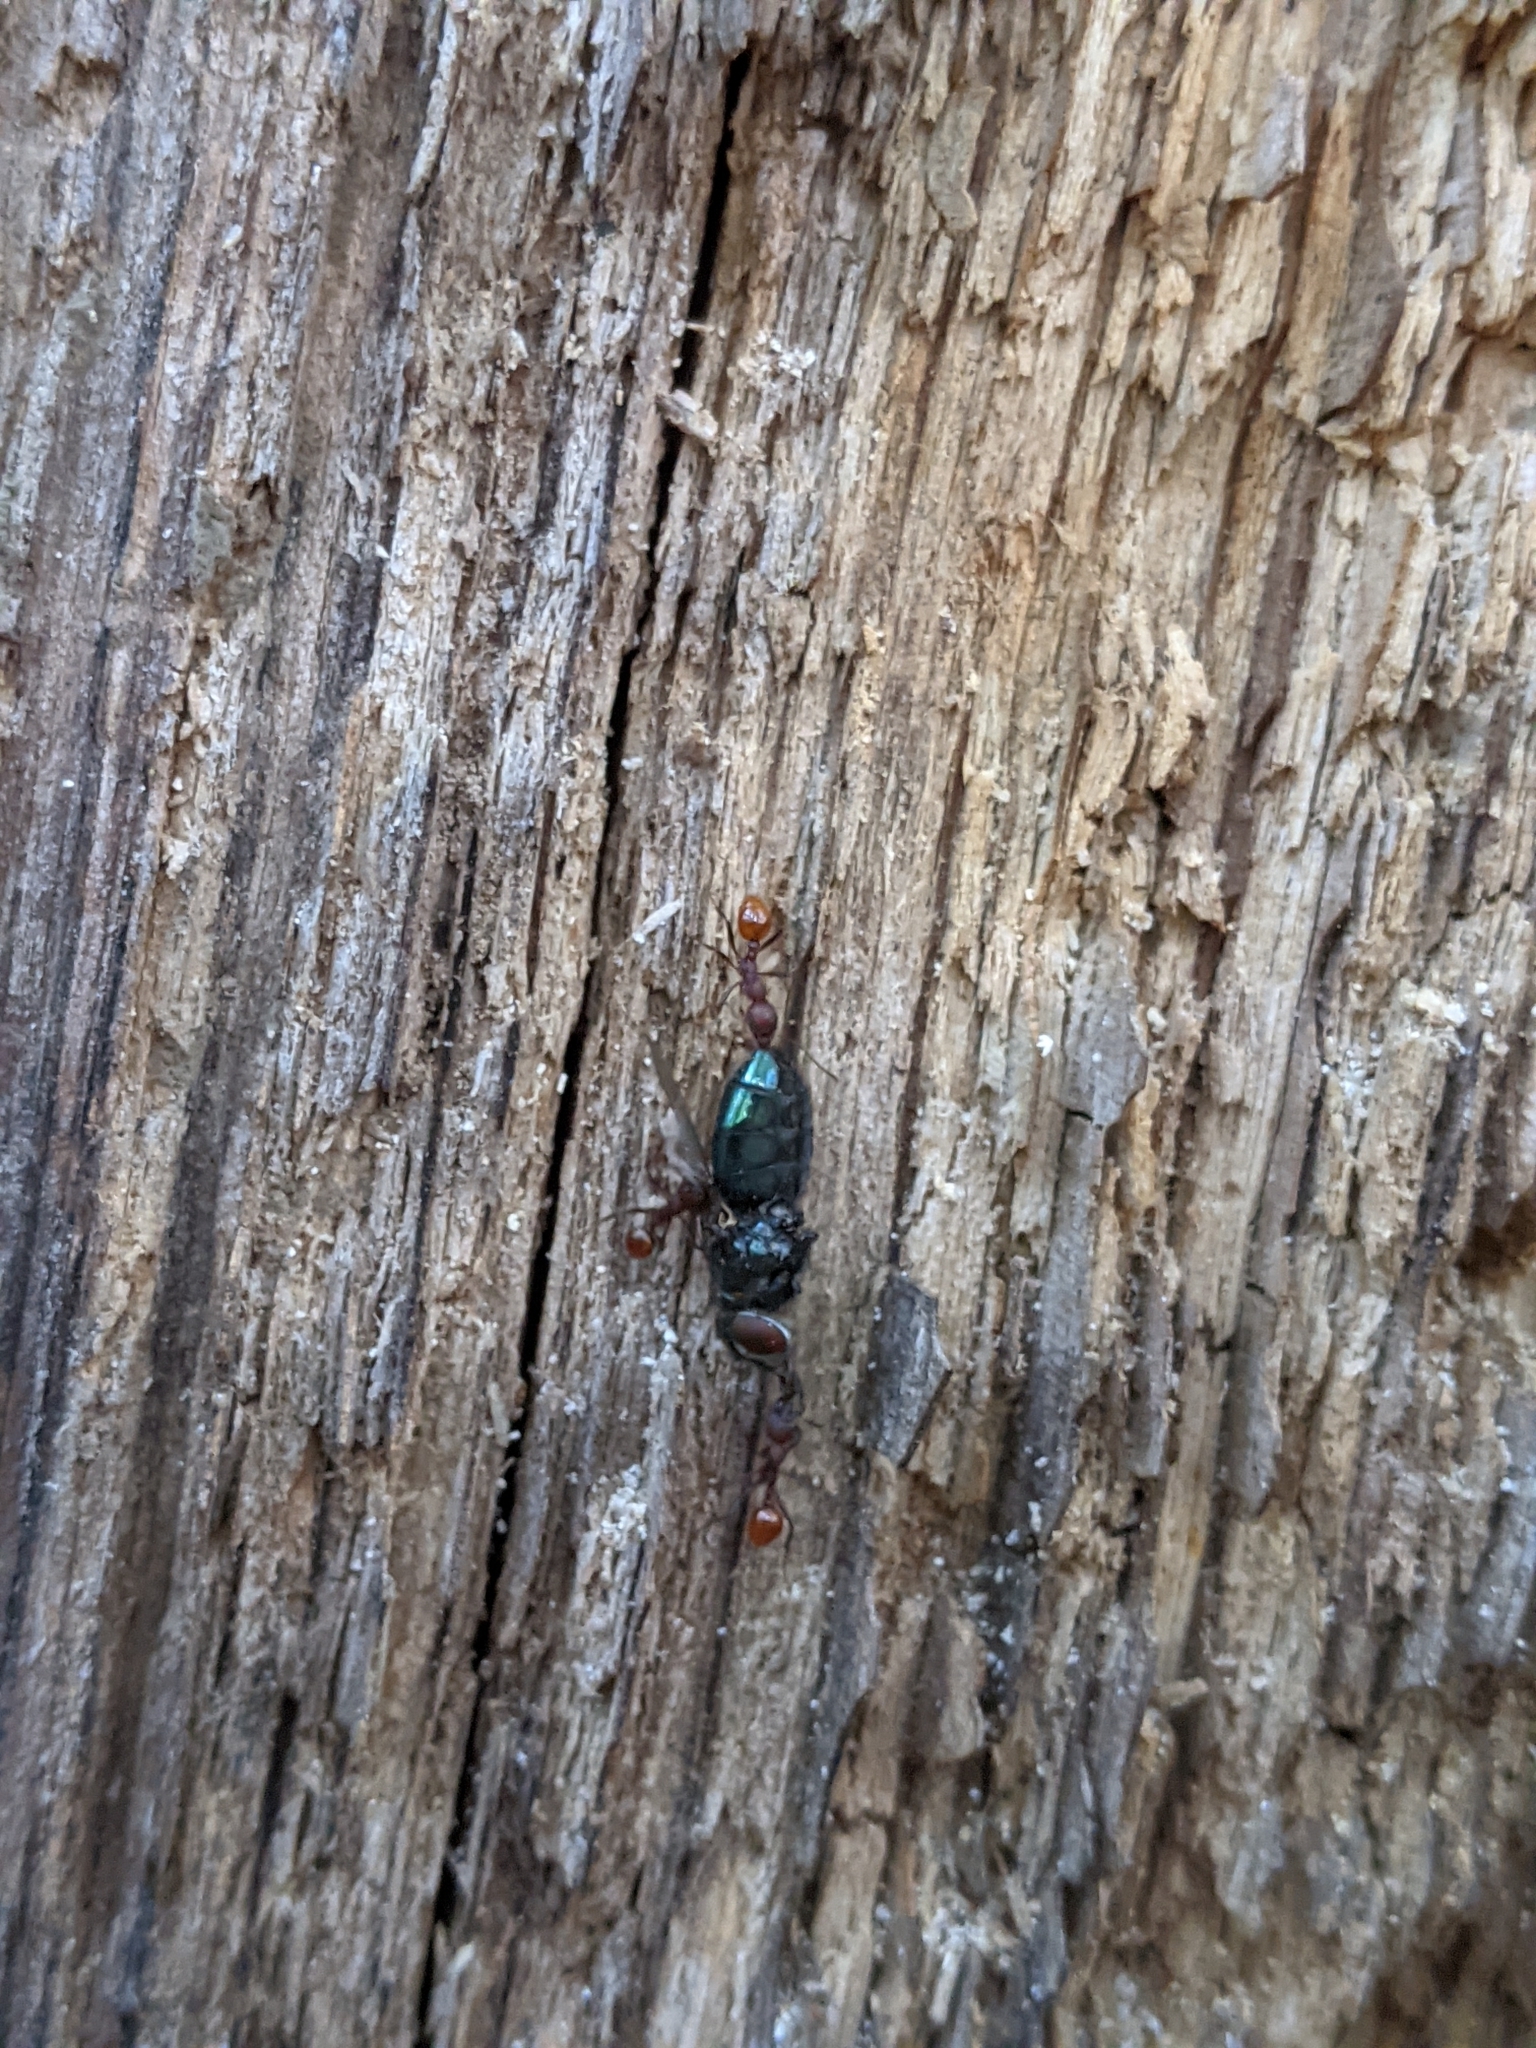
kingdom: Animalia
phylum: Arthropoda
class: Insecta
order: Hymenoptera
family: Formicidae
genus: Aphaenogaster
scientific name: Aphaenogaster tennesseensis
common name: Tennessee thread-waisted ant
